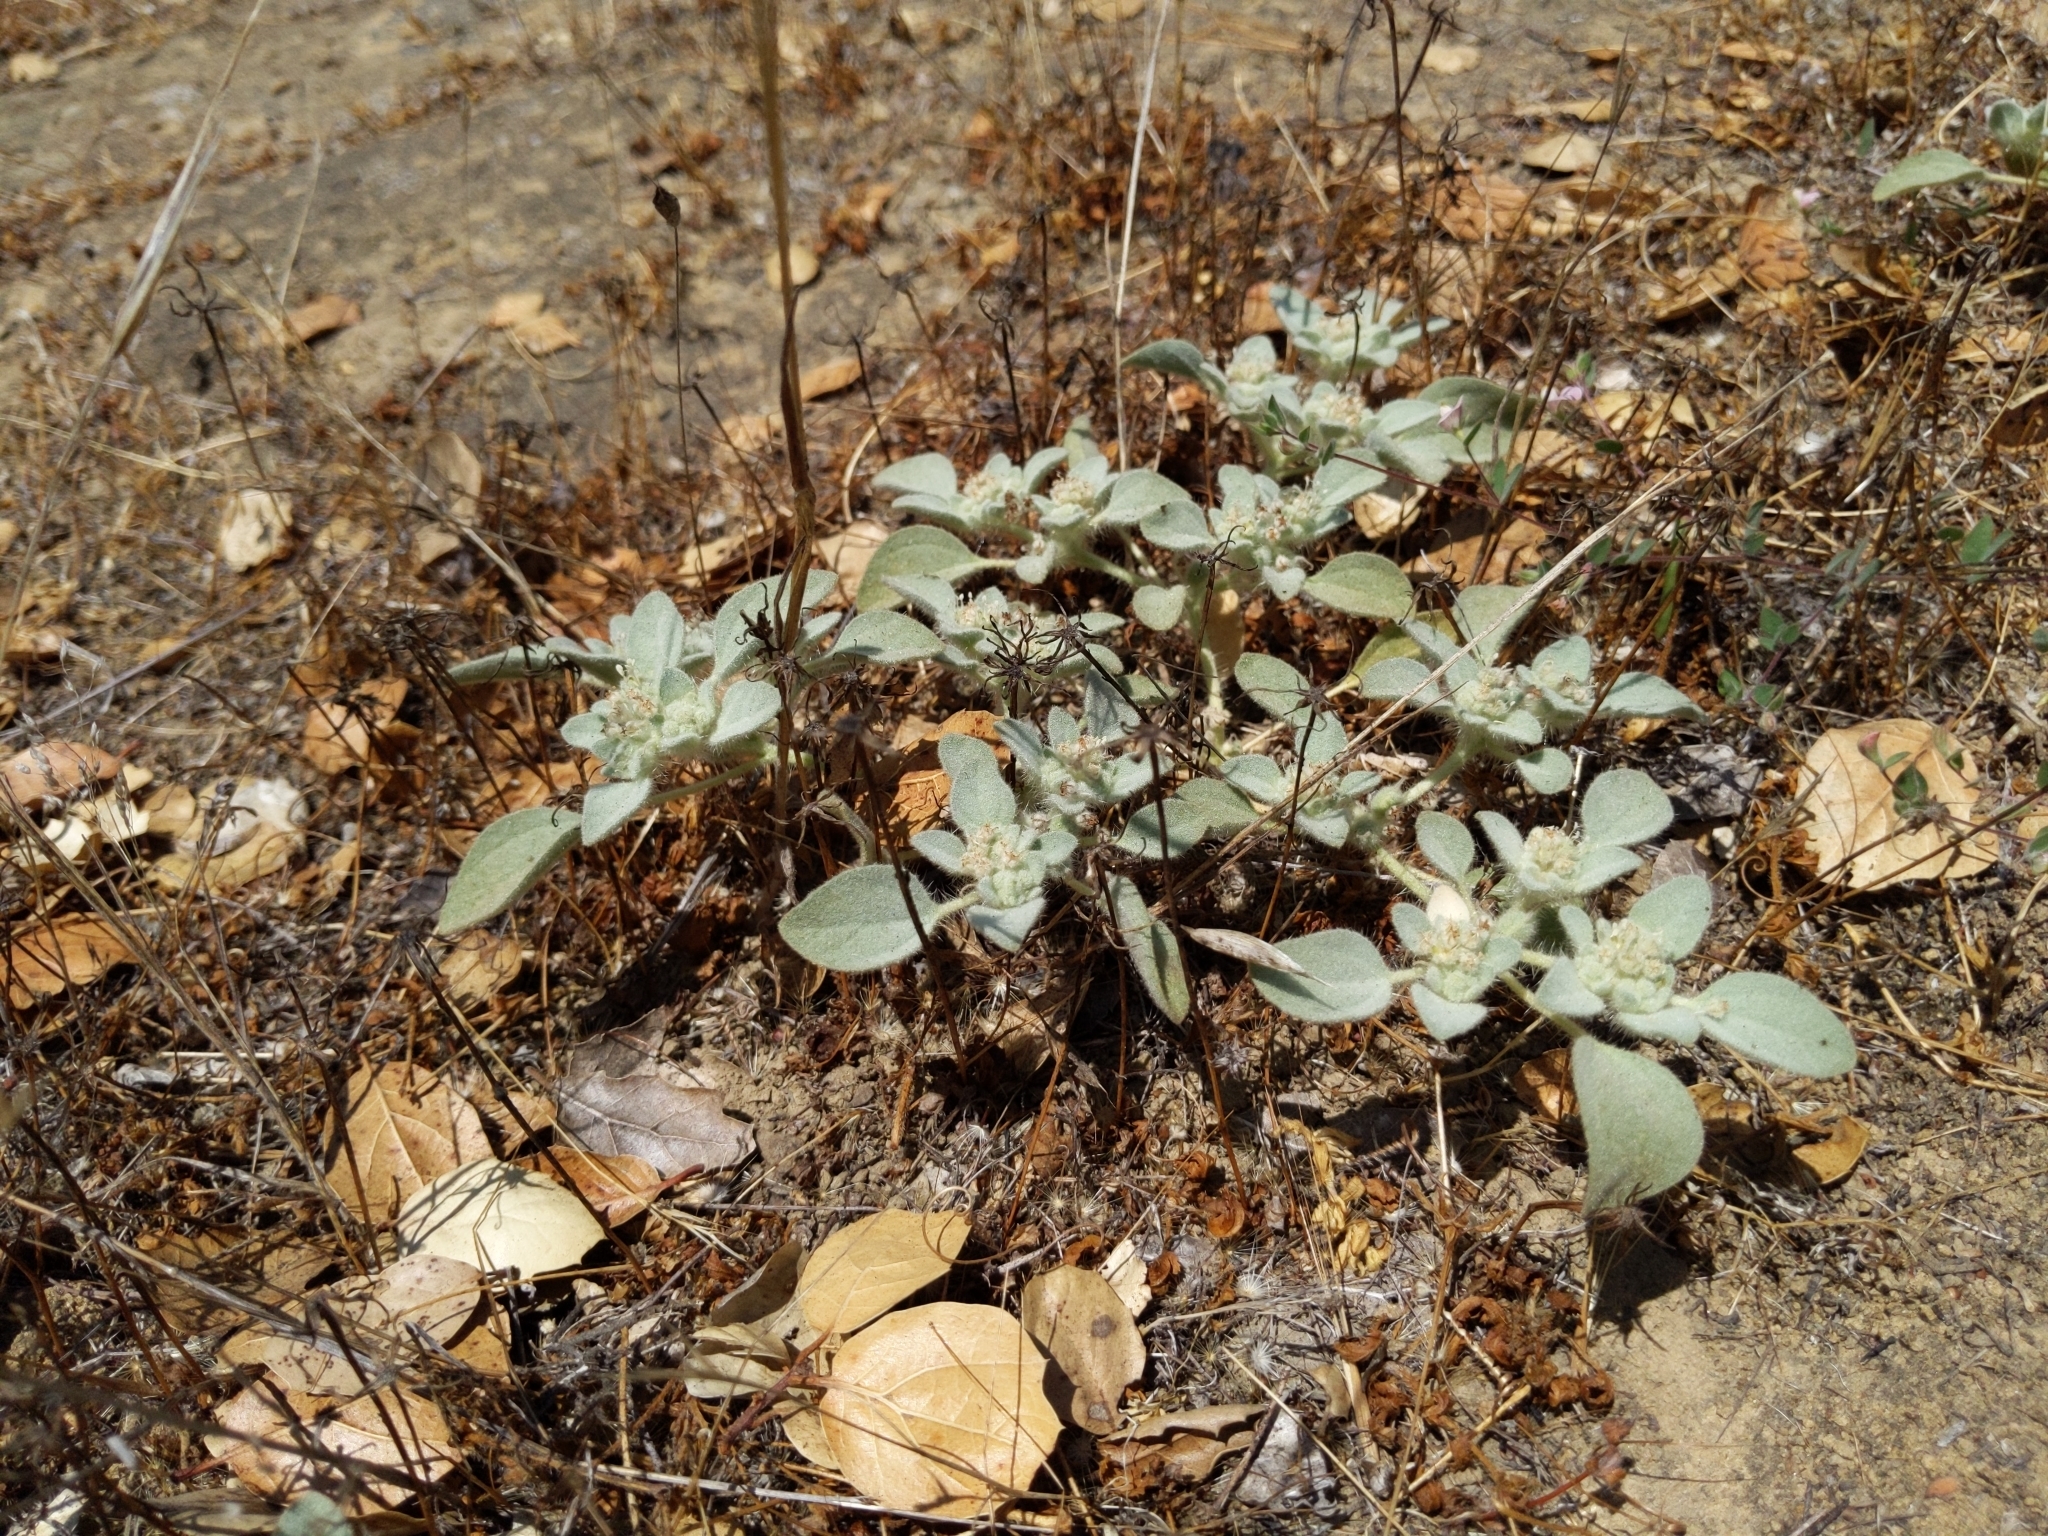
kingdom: Plantae
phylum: Tracheophyta
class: Magnoliopsida
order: Malpighiales
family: Euphorbiaceae
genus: Croton
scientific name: Croton setiger
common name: Dove weed
